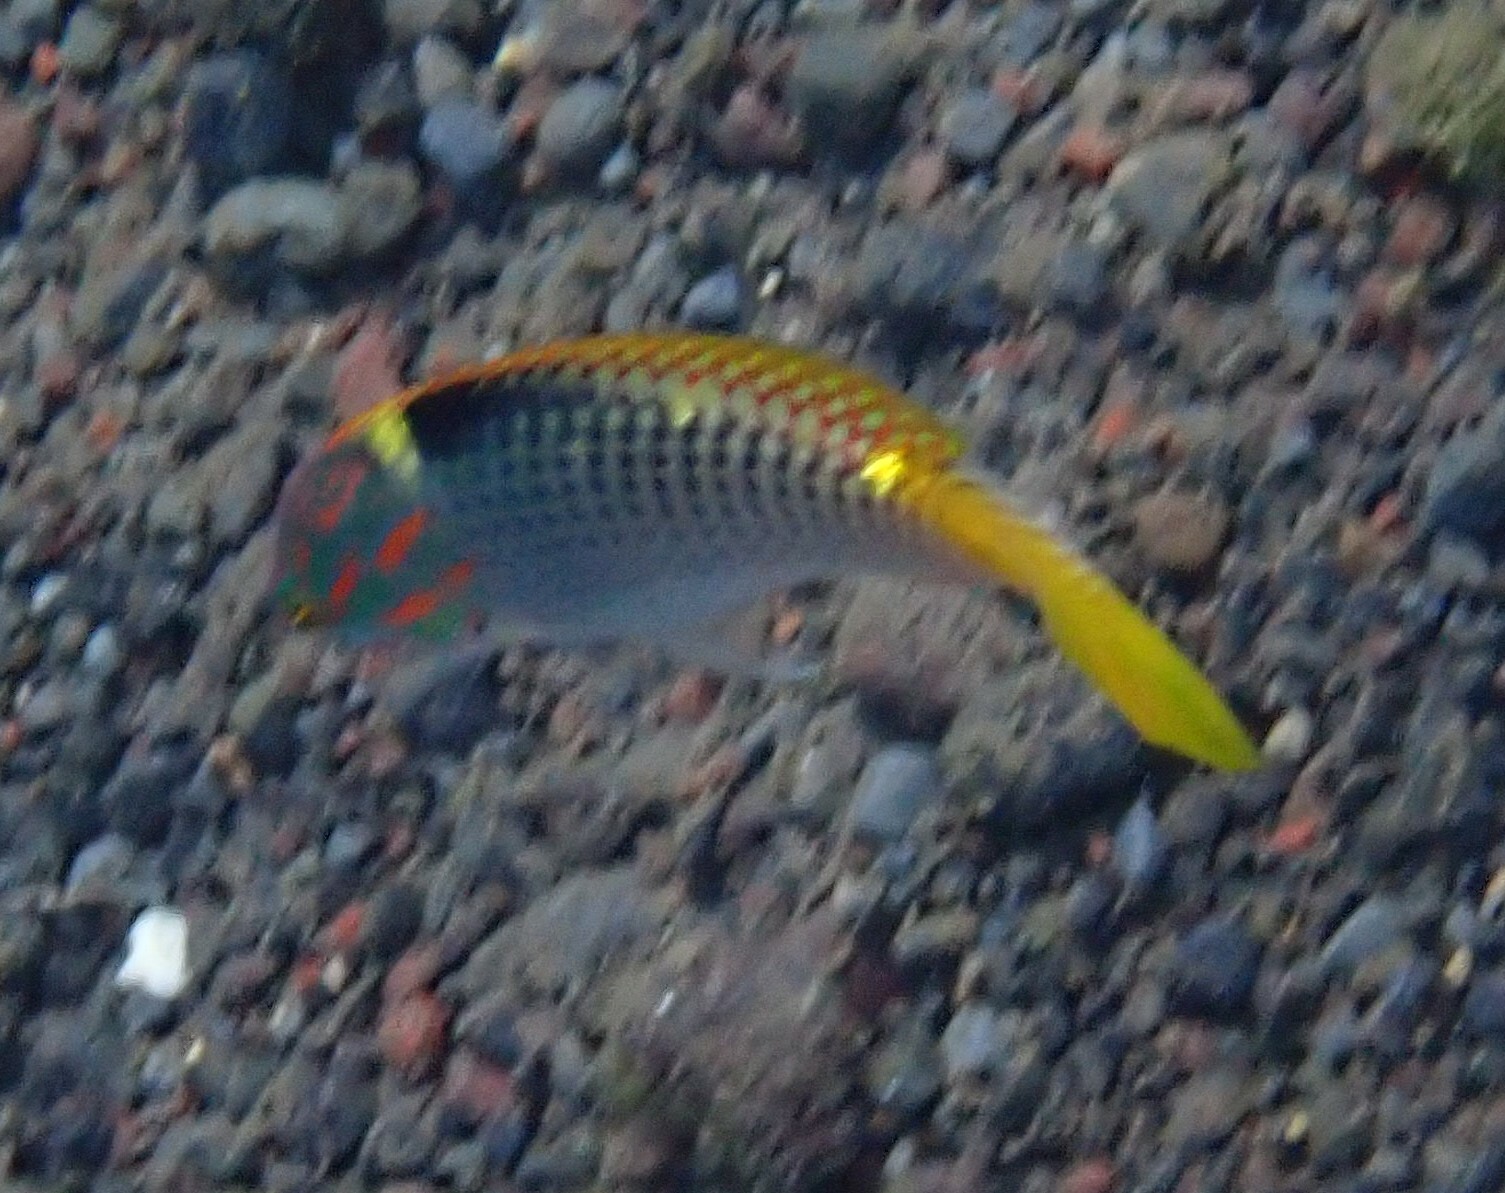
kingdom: Animalia
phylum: Chordata
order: Perciformes
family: Labridae
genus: Halichoeres
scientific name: Halichoeres hortulanus
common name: Checkerboard wrasse
